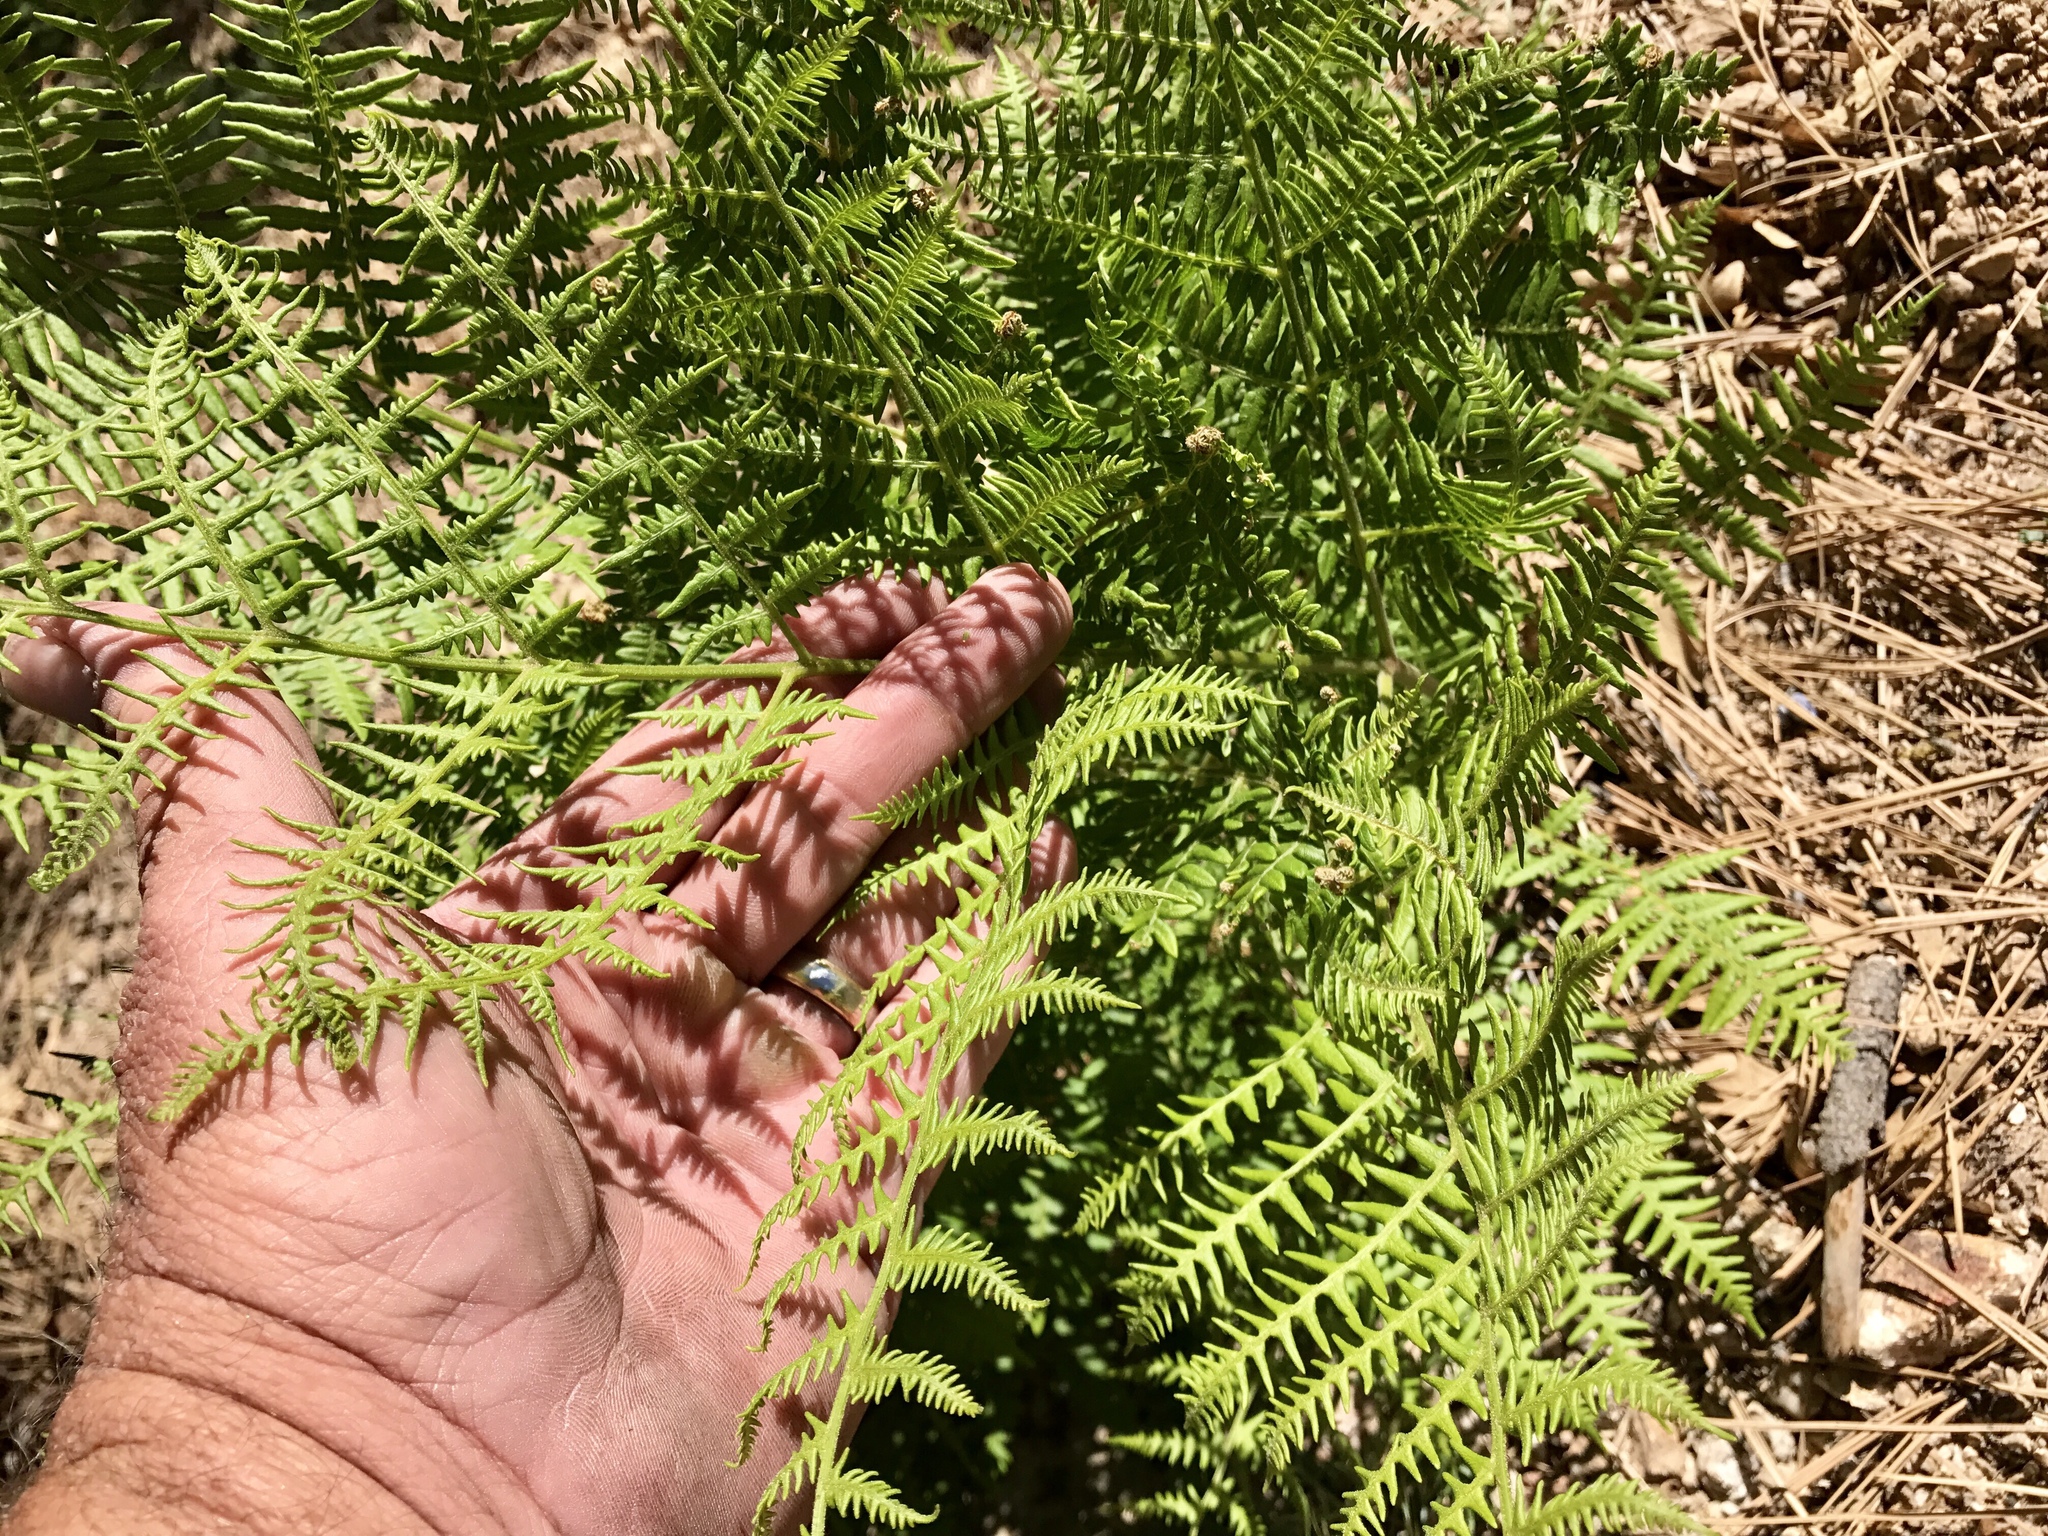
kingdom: Plantae
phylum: Tracheophyta
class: Polypodiopsida
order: Polypodiales
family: Dennstaedtiaceae
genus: Pteridium
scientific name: Pteridium aquilinum
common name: Bracken
